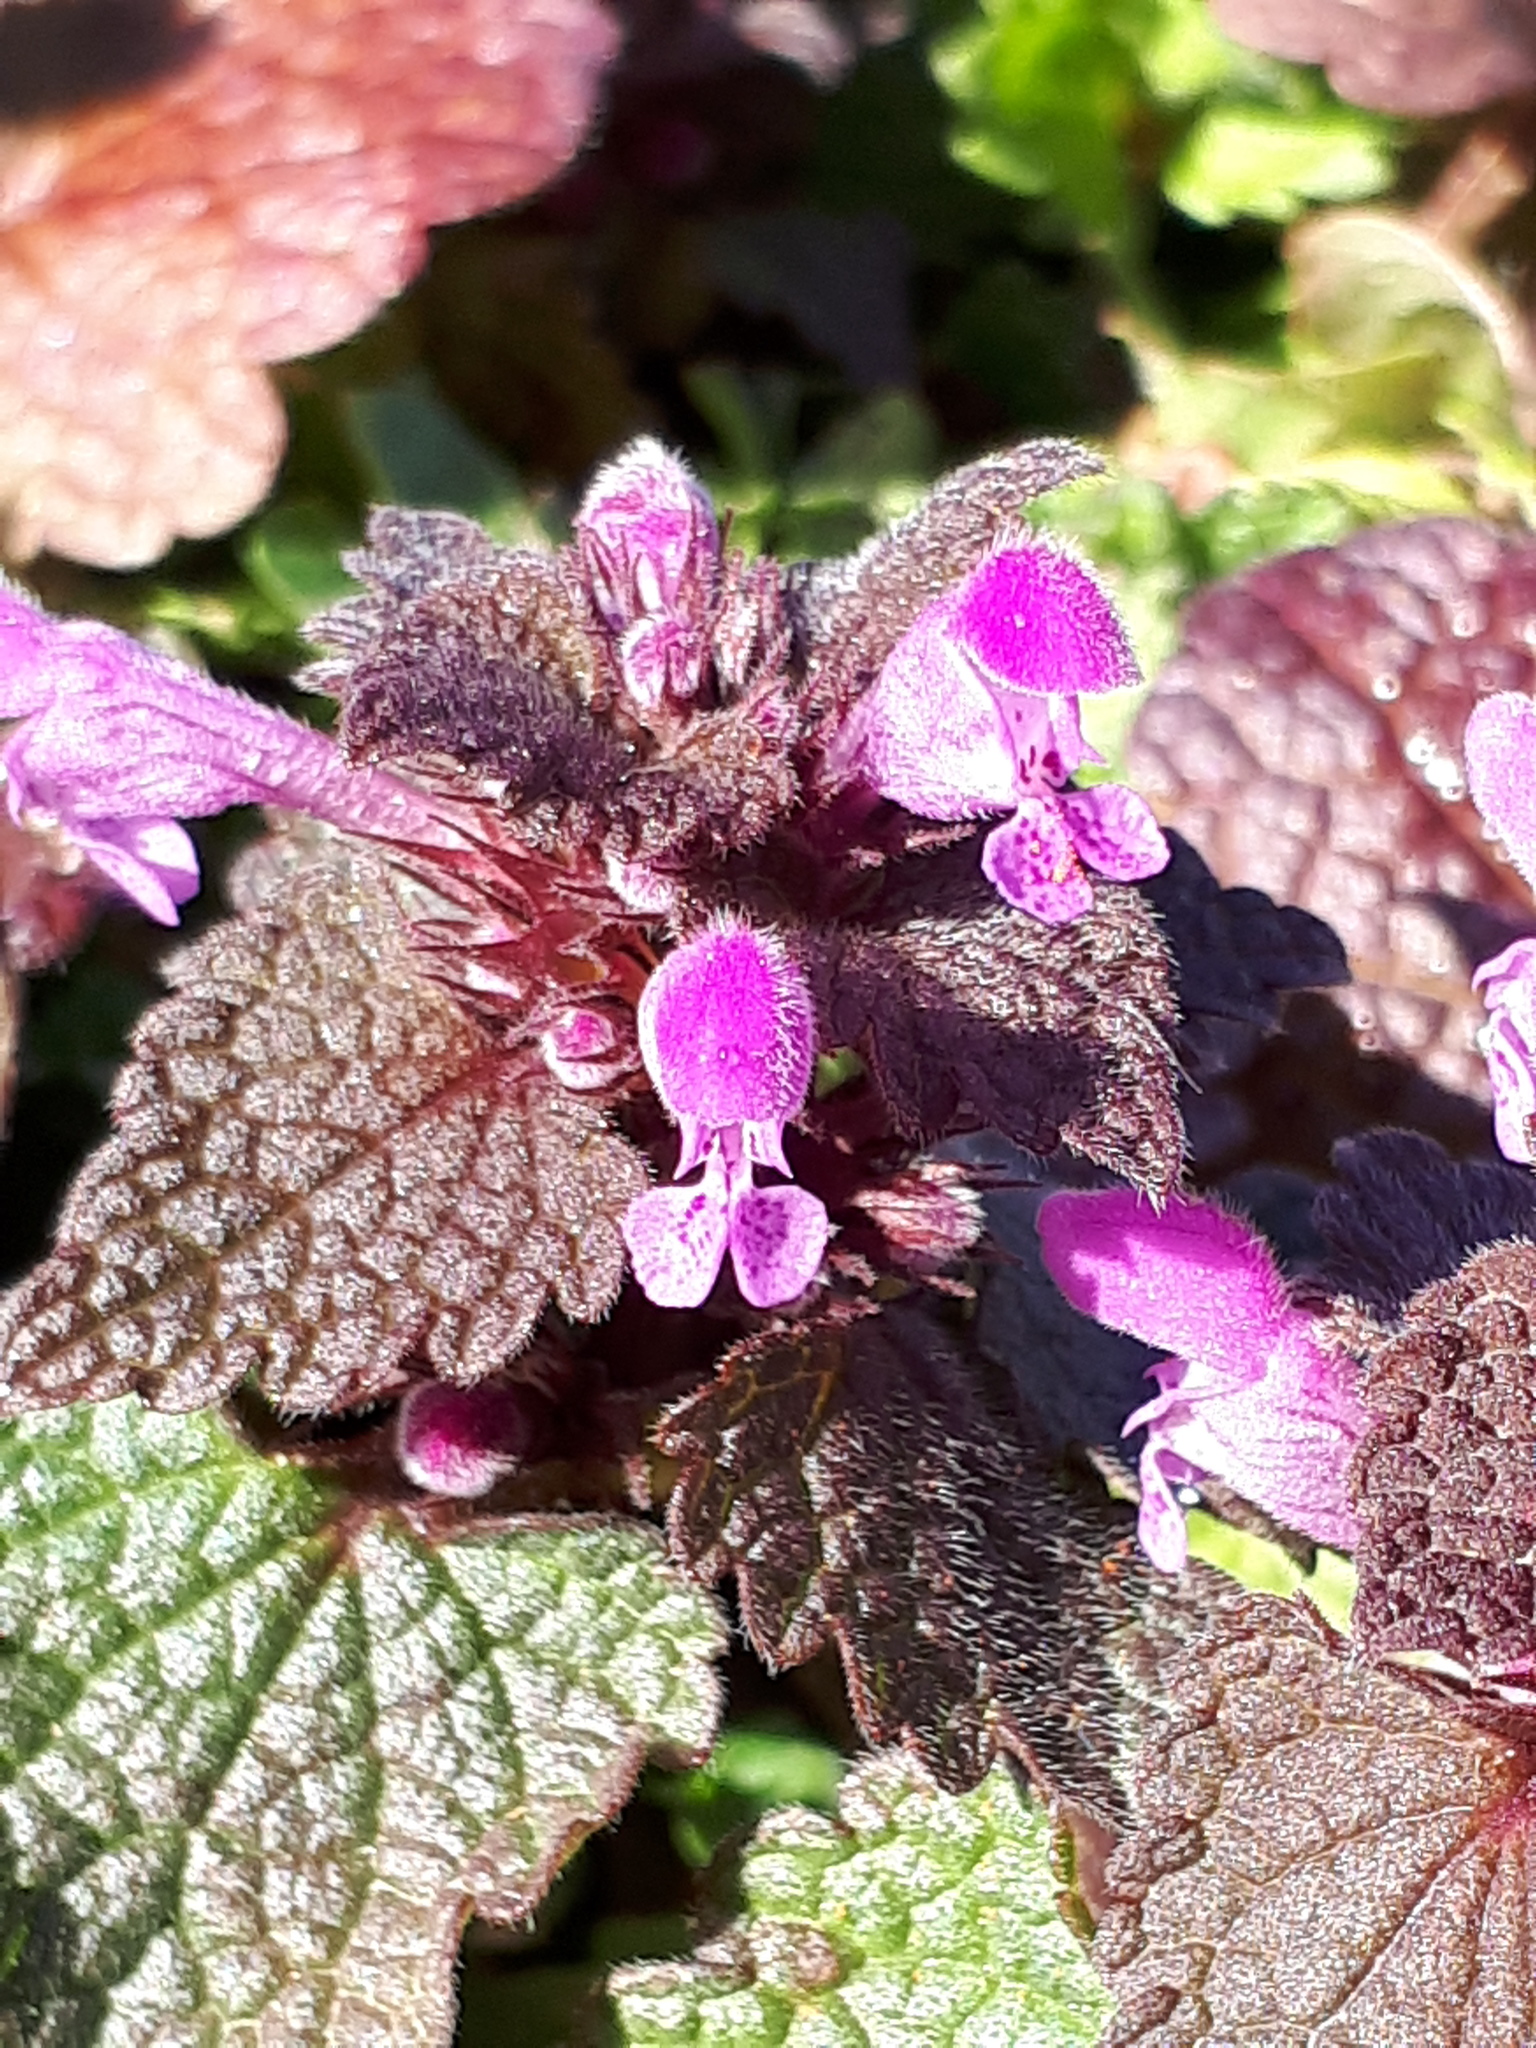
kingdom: Plantae
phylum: Tracheophyta
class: Magnoliopsida
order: Lamiales
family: Lamiaceae
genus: Lamium
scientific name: Lamium purpureum
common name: Red dead-nettle
